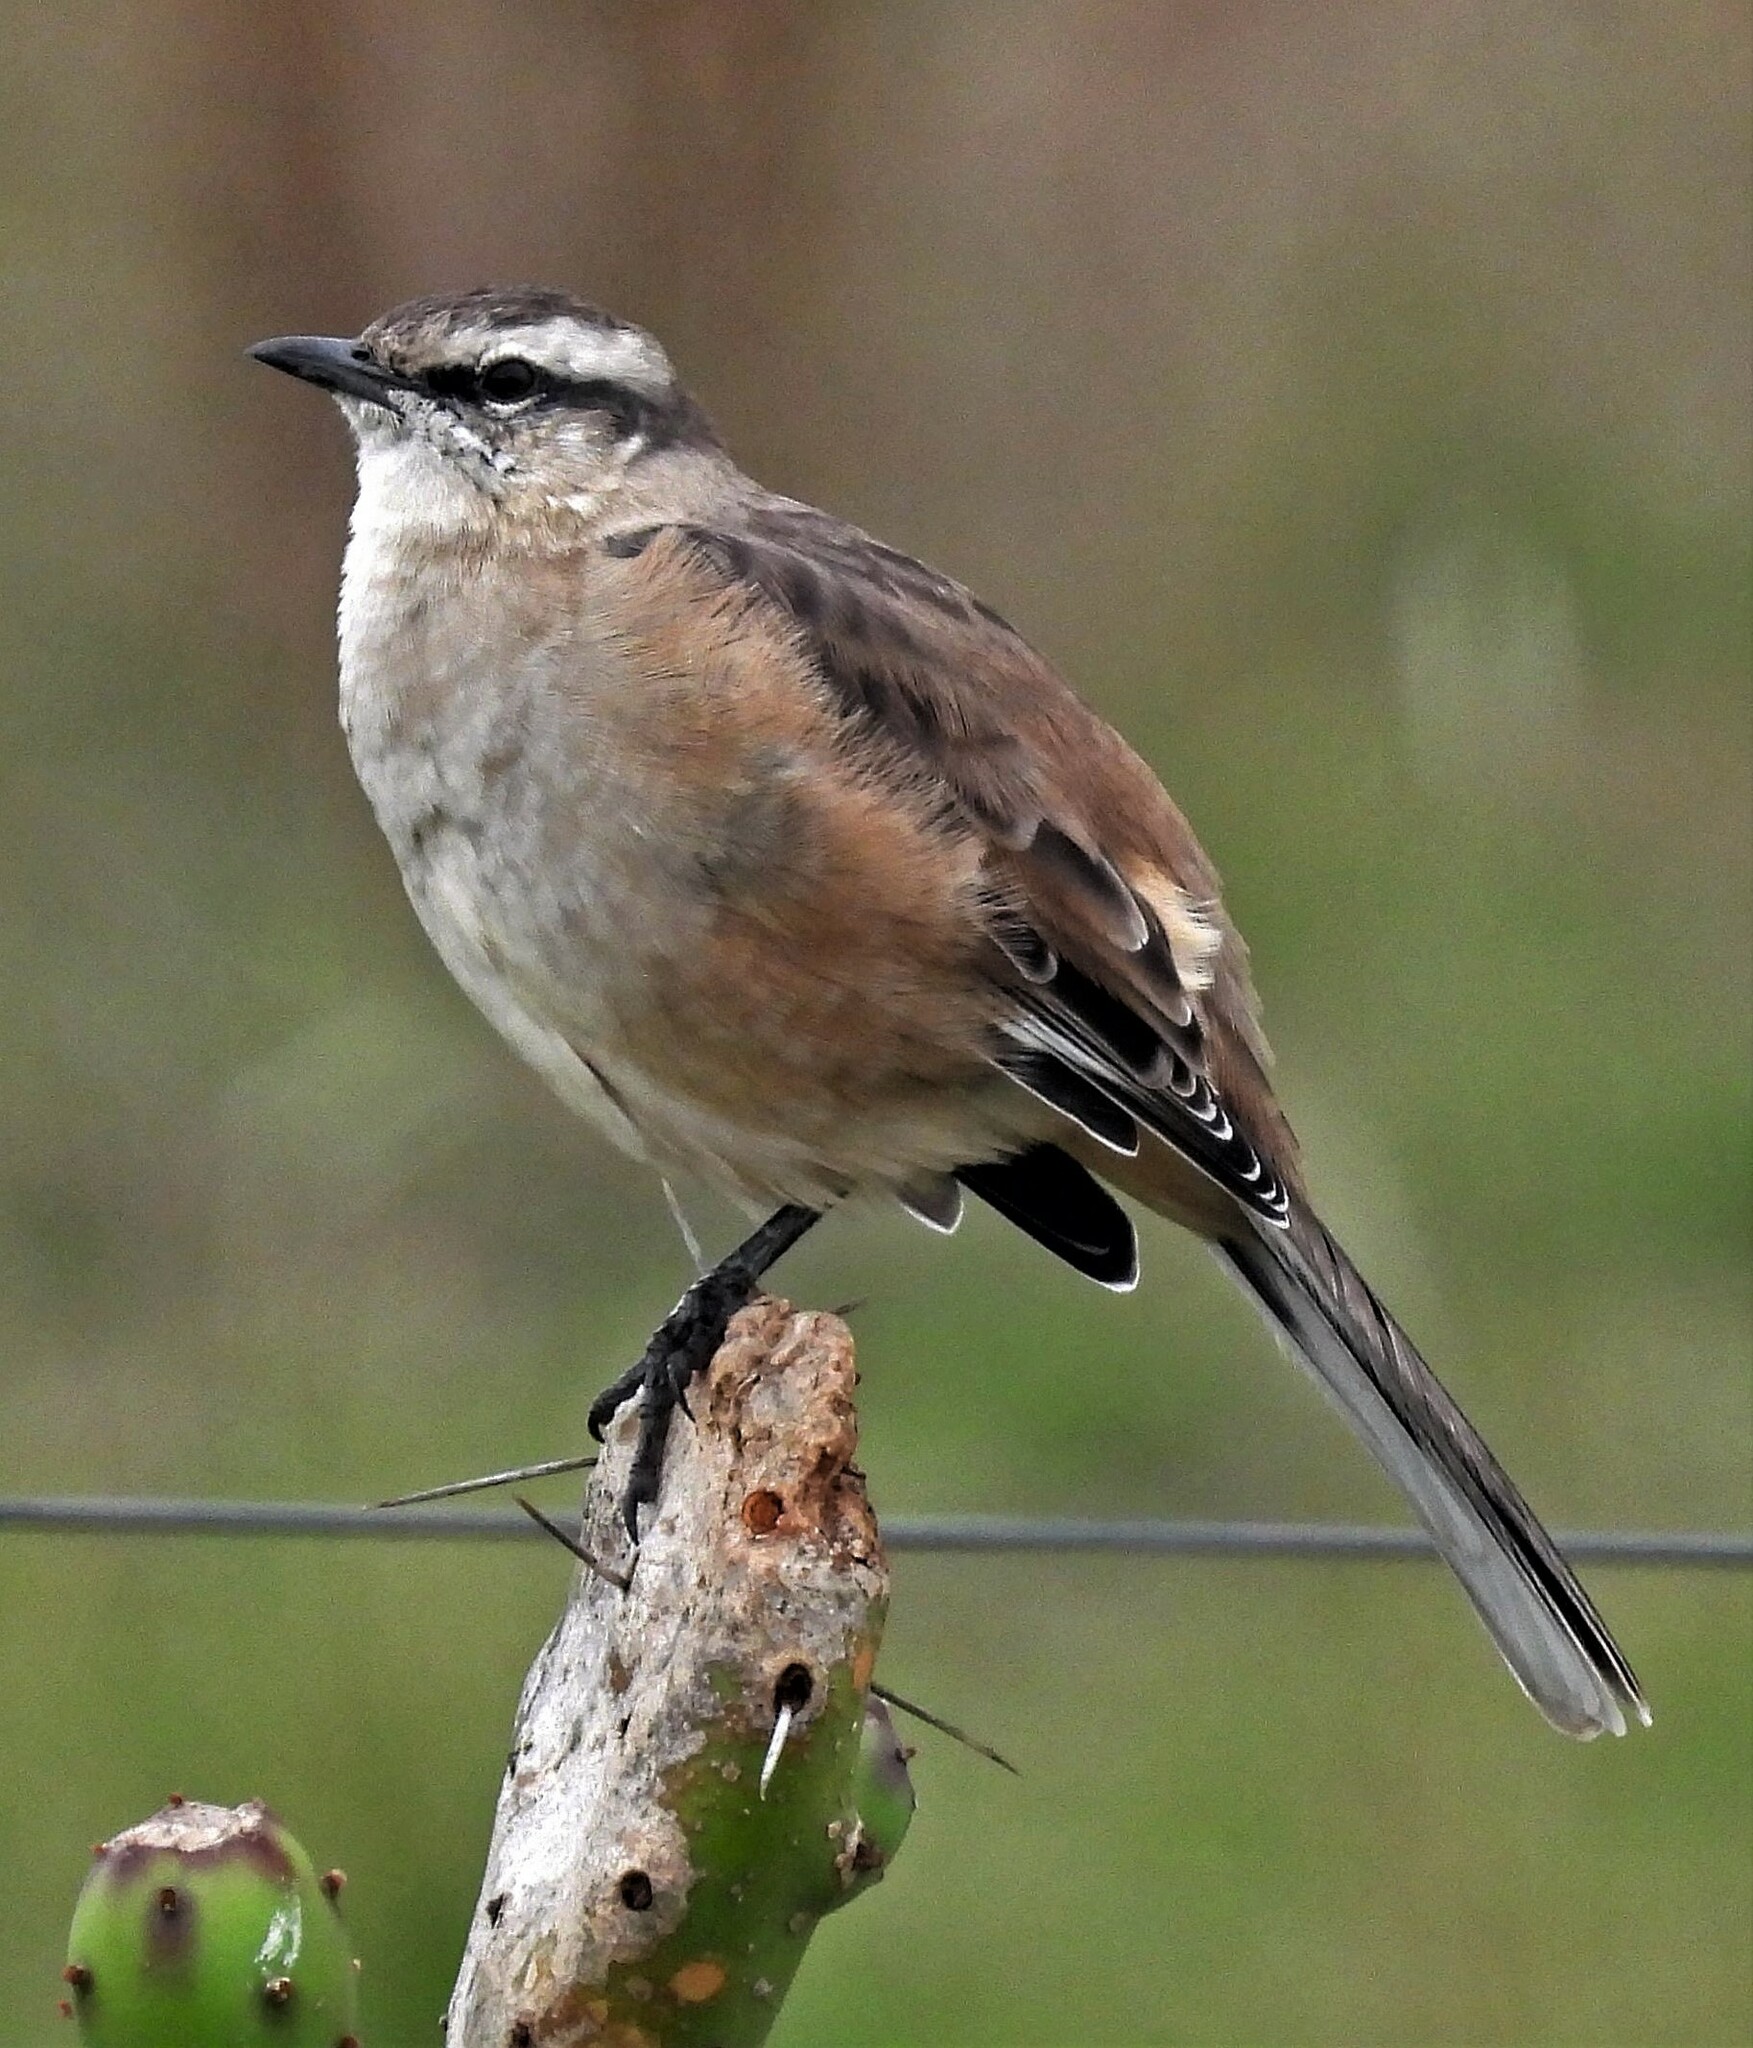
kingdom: Animalia
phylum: Chordata
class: Aves
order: Passeriformes
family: Mimidae
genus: Mimus
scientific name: Mimus saturninus
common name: Chalk-browed mockingbird
